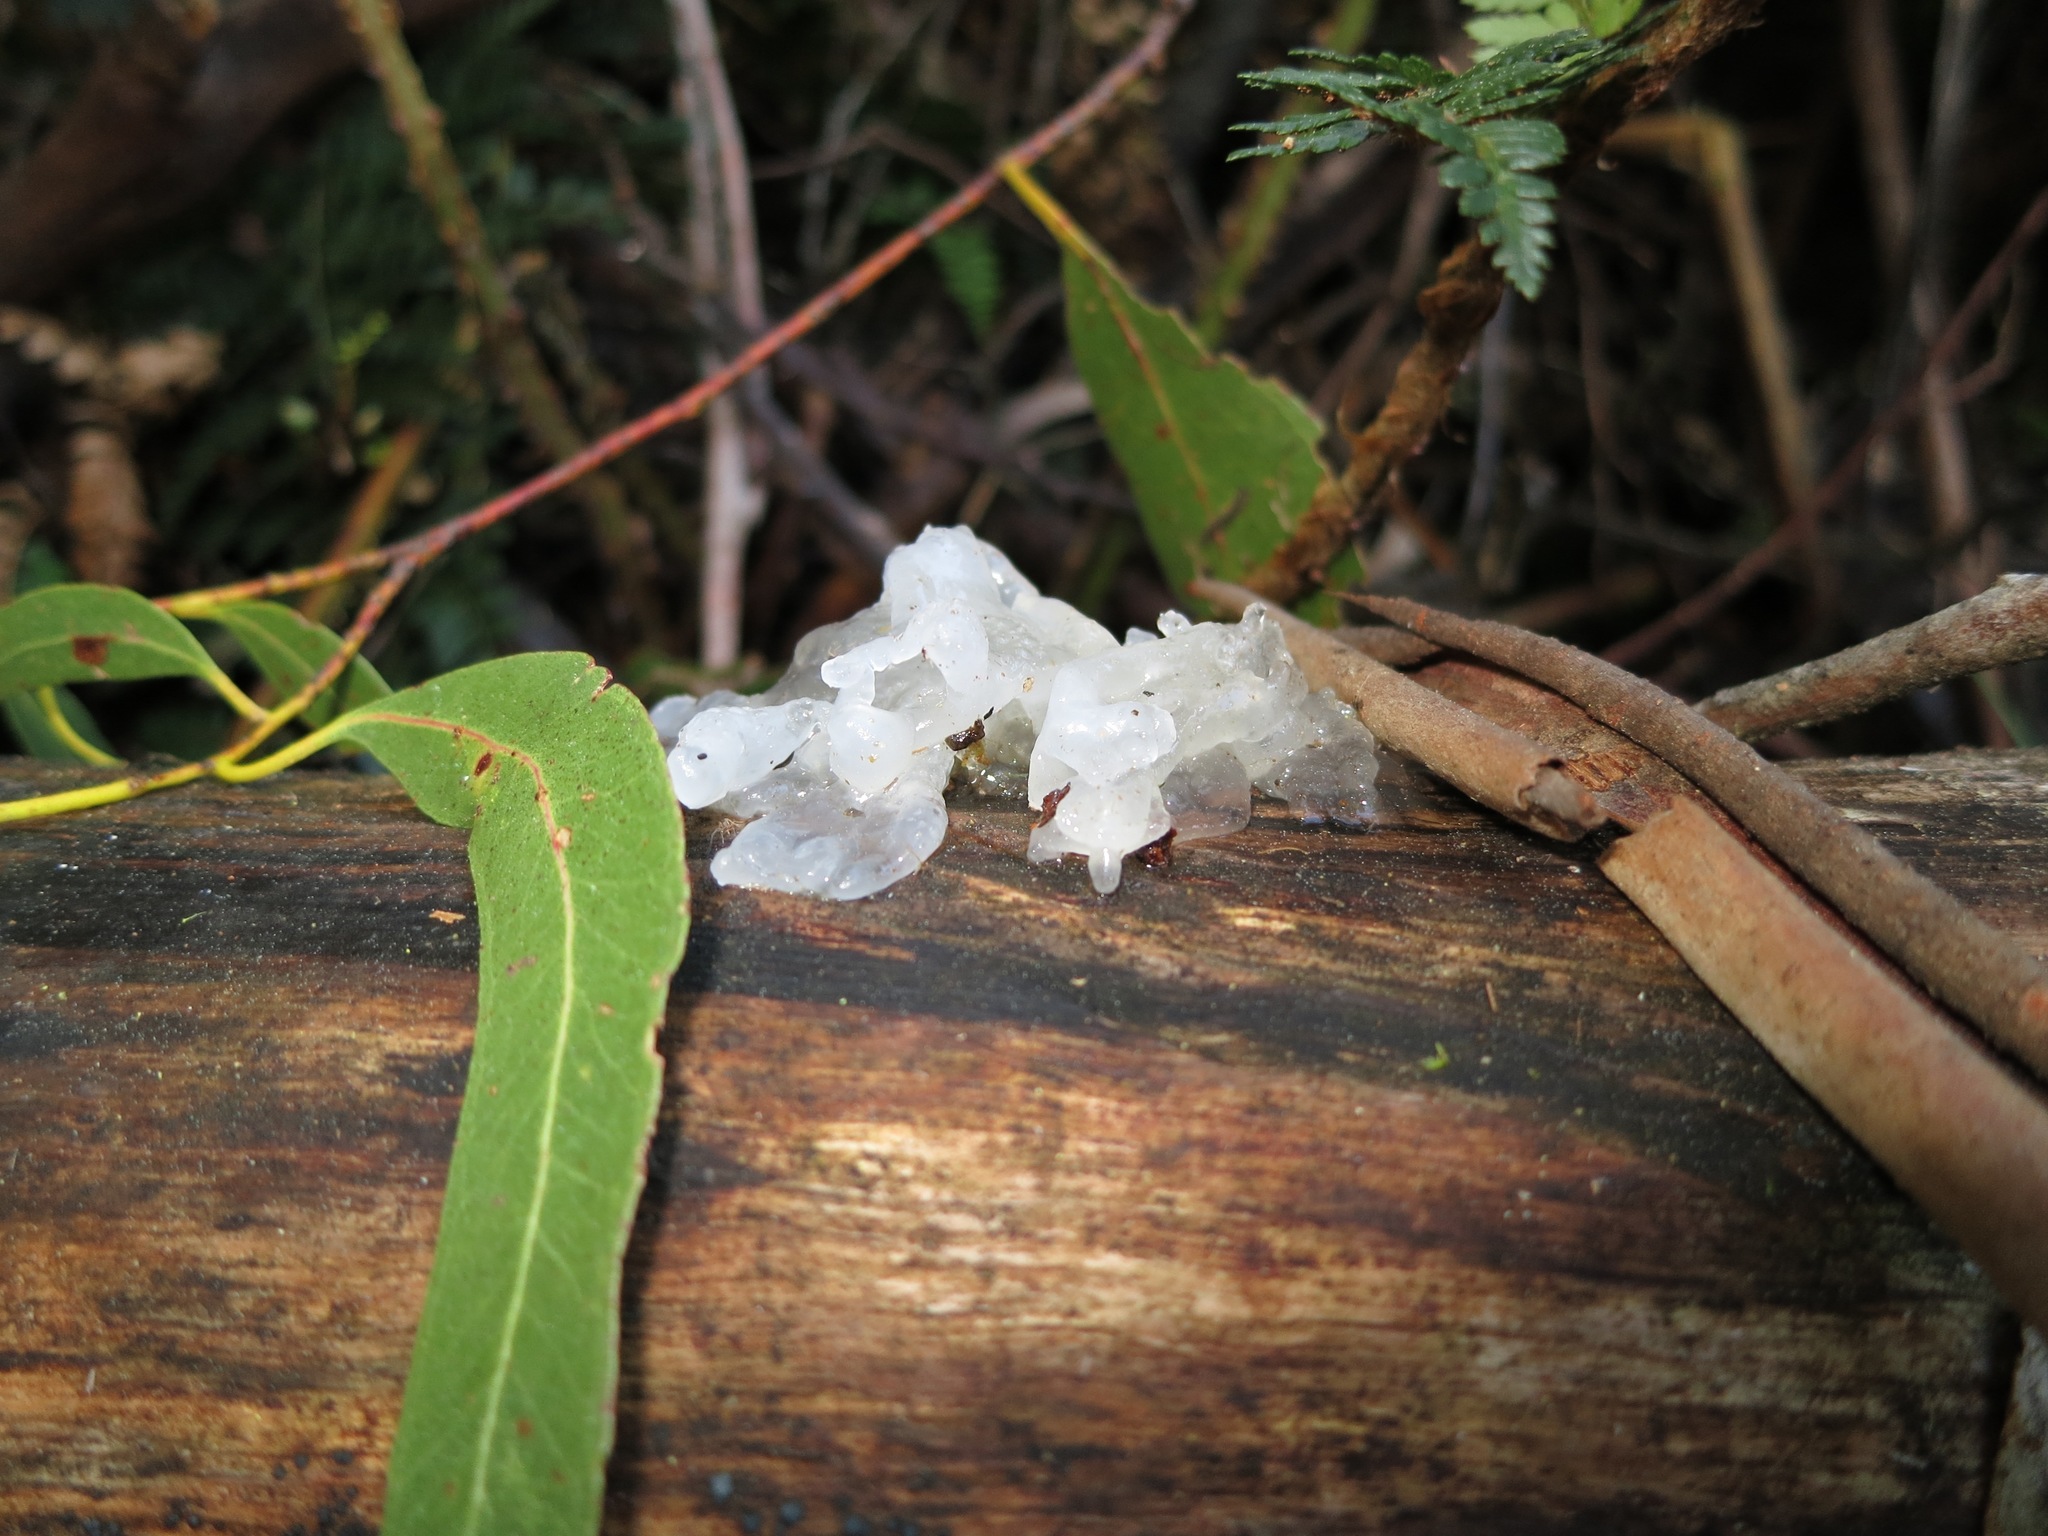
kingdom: Fungi
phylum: Basidiomycota
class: Tremellomycetes
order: Tremellales
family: Tremellaceae
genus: Tremella
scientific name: Tremella fuciformis
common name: Snow fungus
